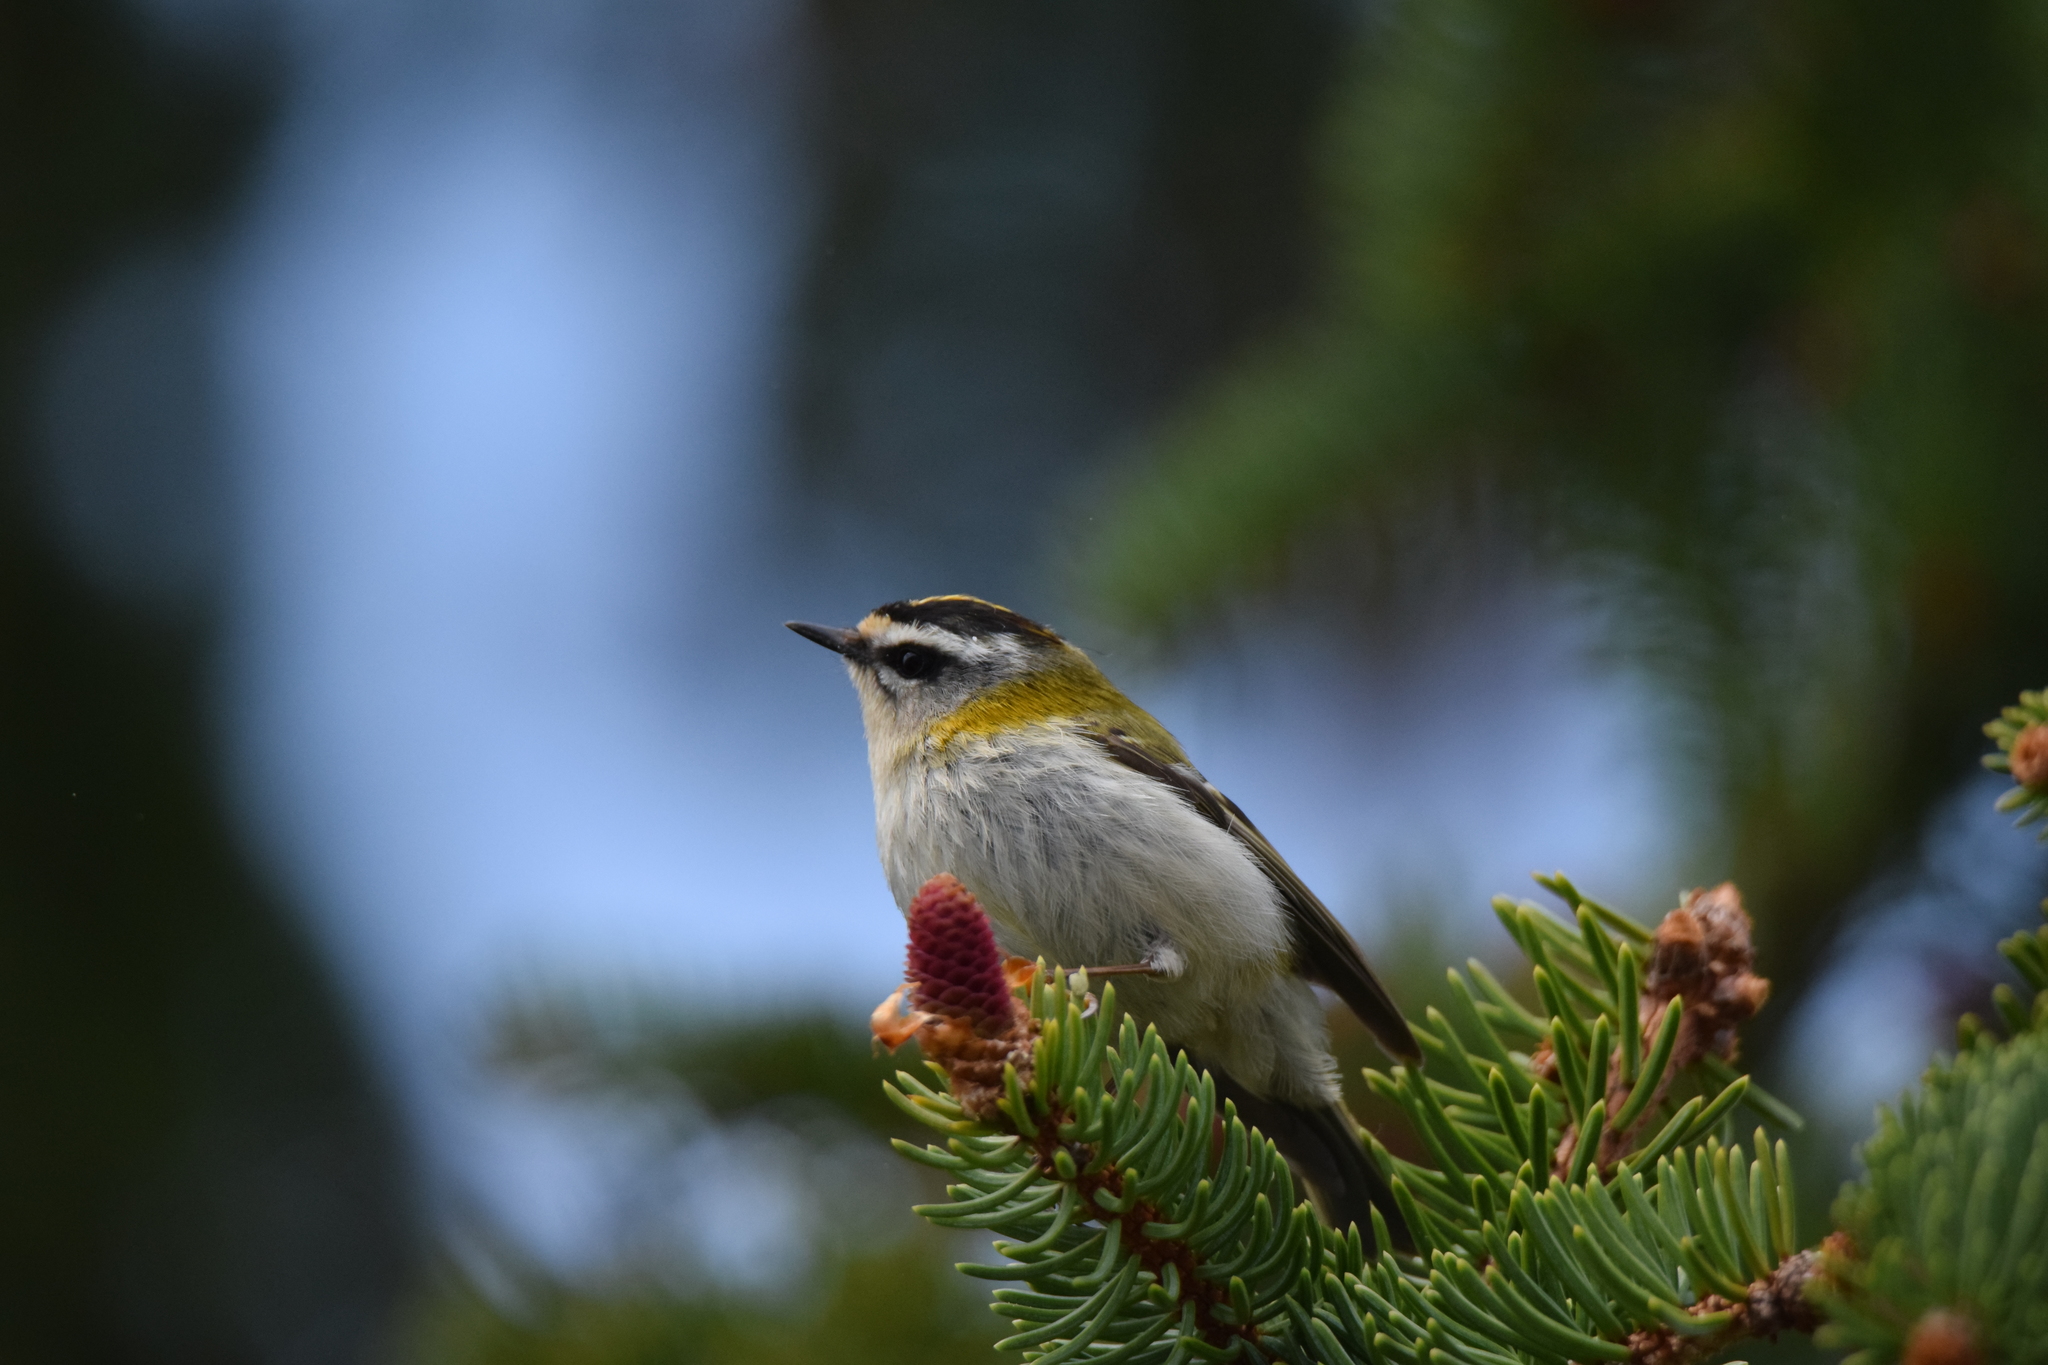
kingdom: Animalia
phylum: Chordata
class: Aves
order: Passeriformes
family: Regulidae
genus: Regulus
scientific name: Regulus ignicapilla
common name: Firecrest
